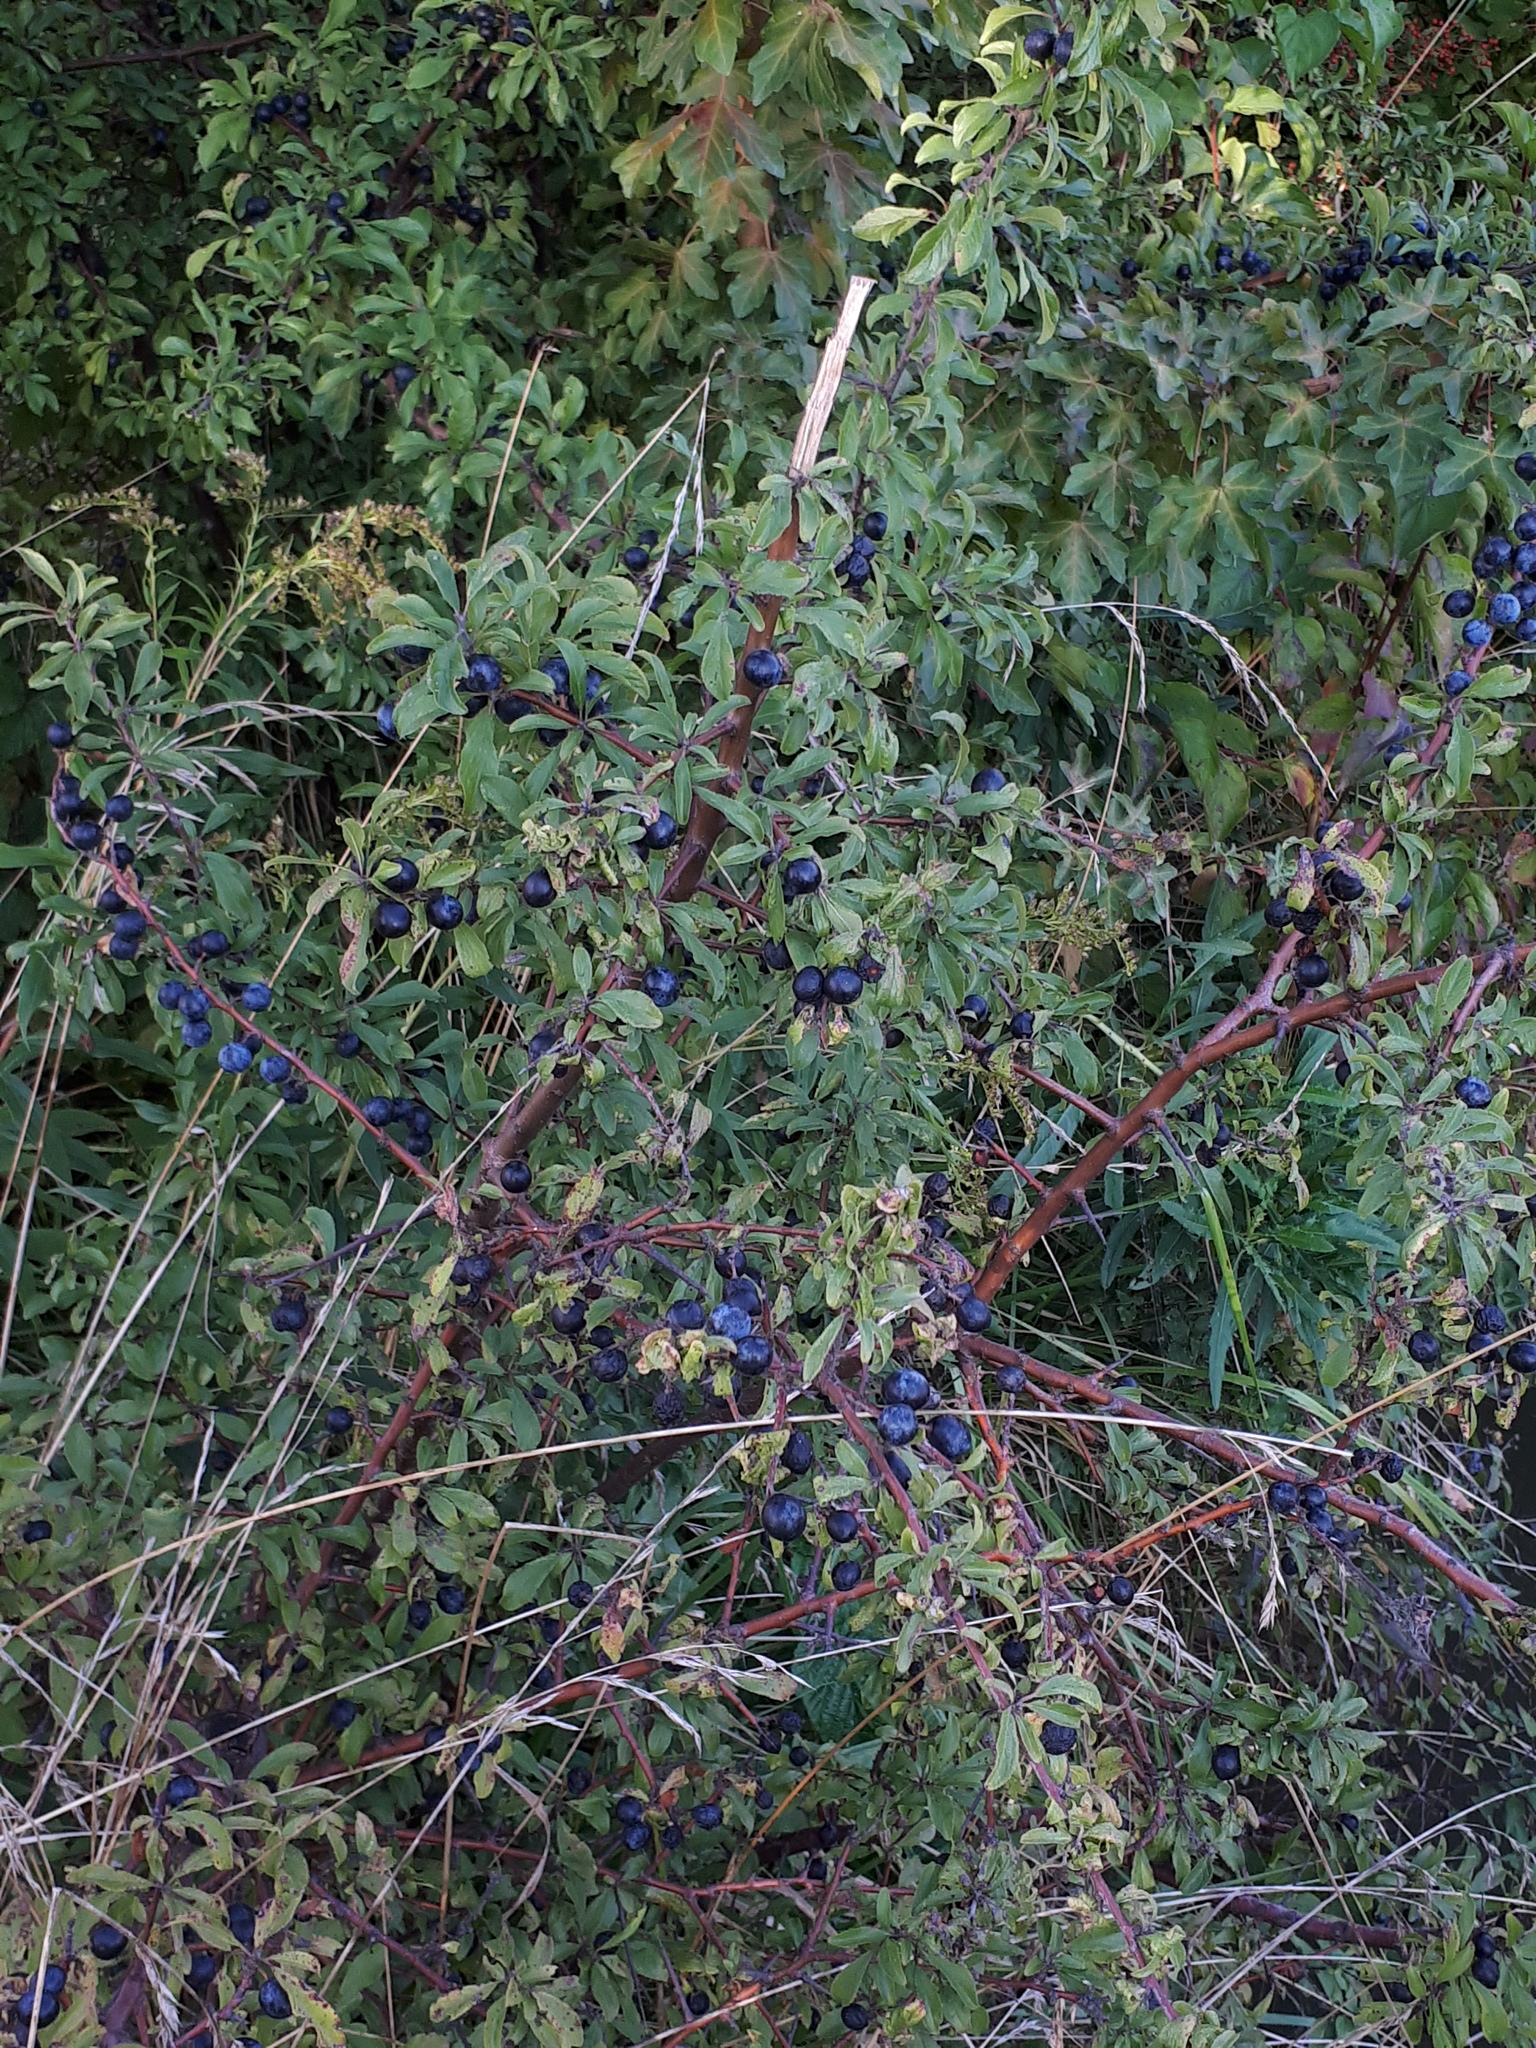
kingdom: Plantae
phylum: Tracheophyta
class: Magnoliopsida
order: Rosales
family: Rosaceae
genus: Prunus
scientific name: Prunus spinosa
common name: Blackthorn
